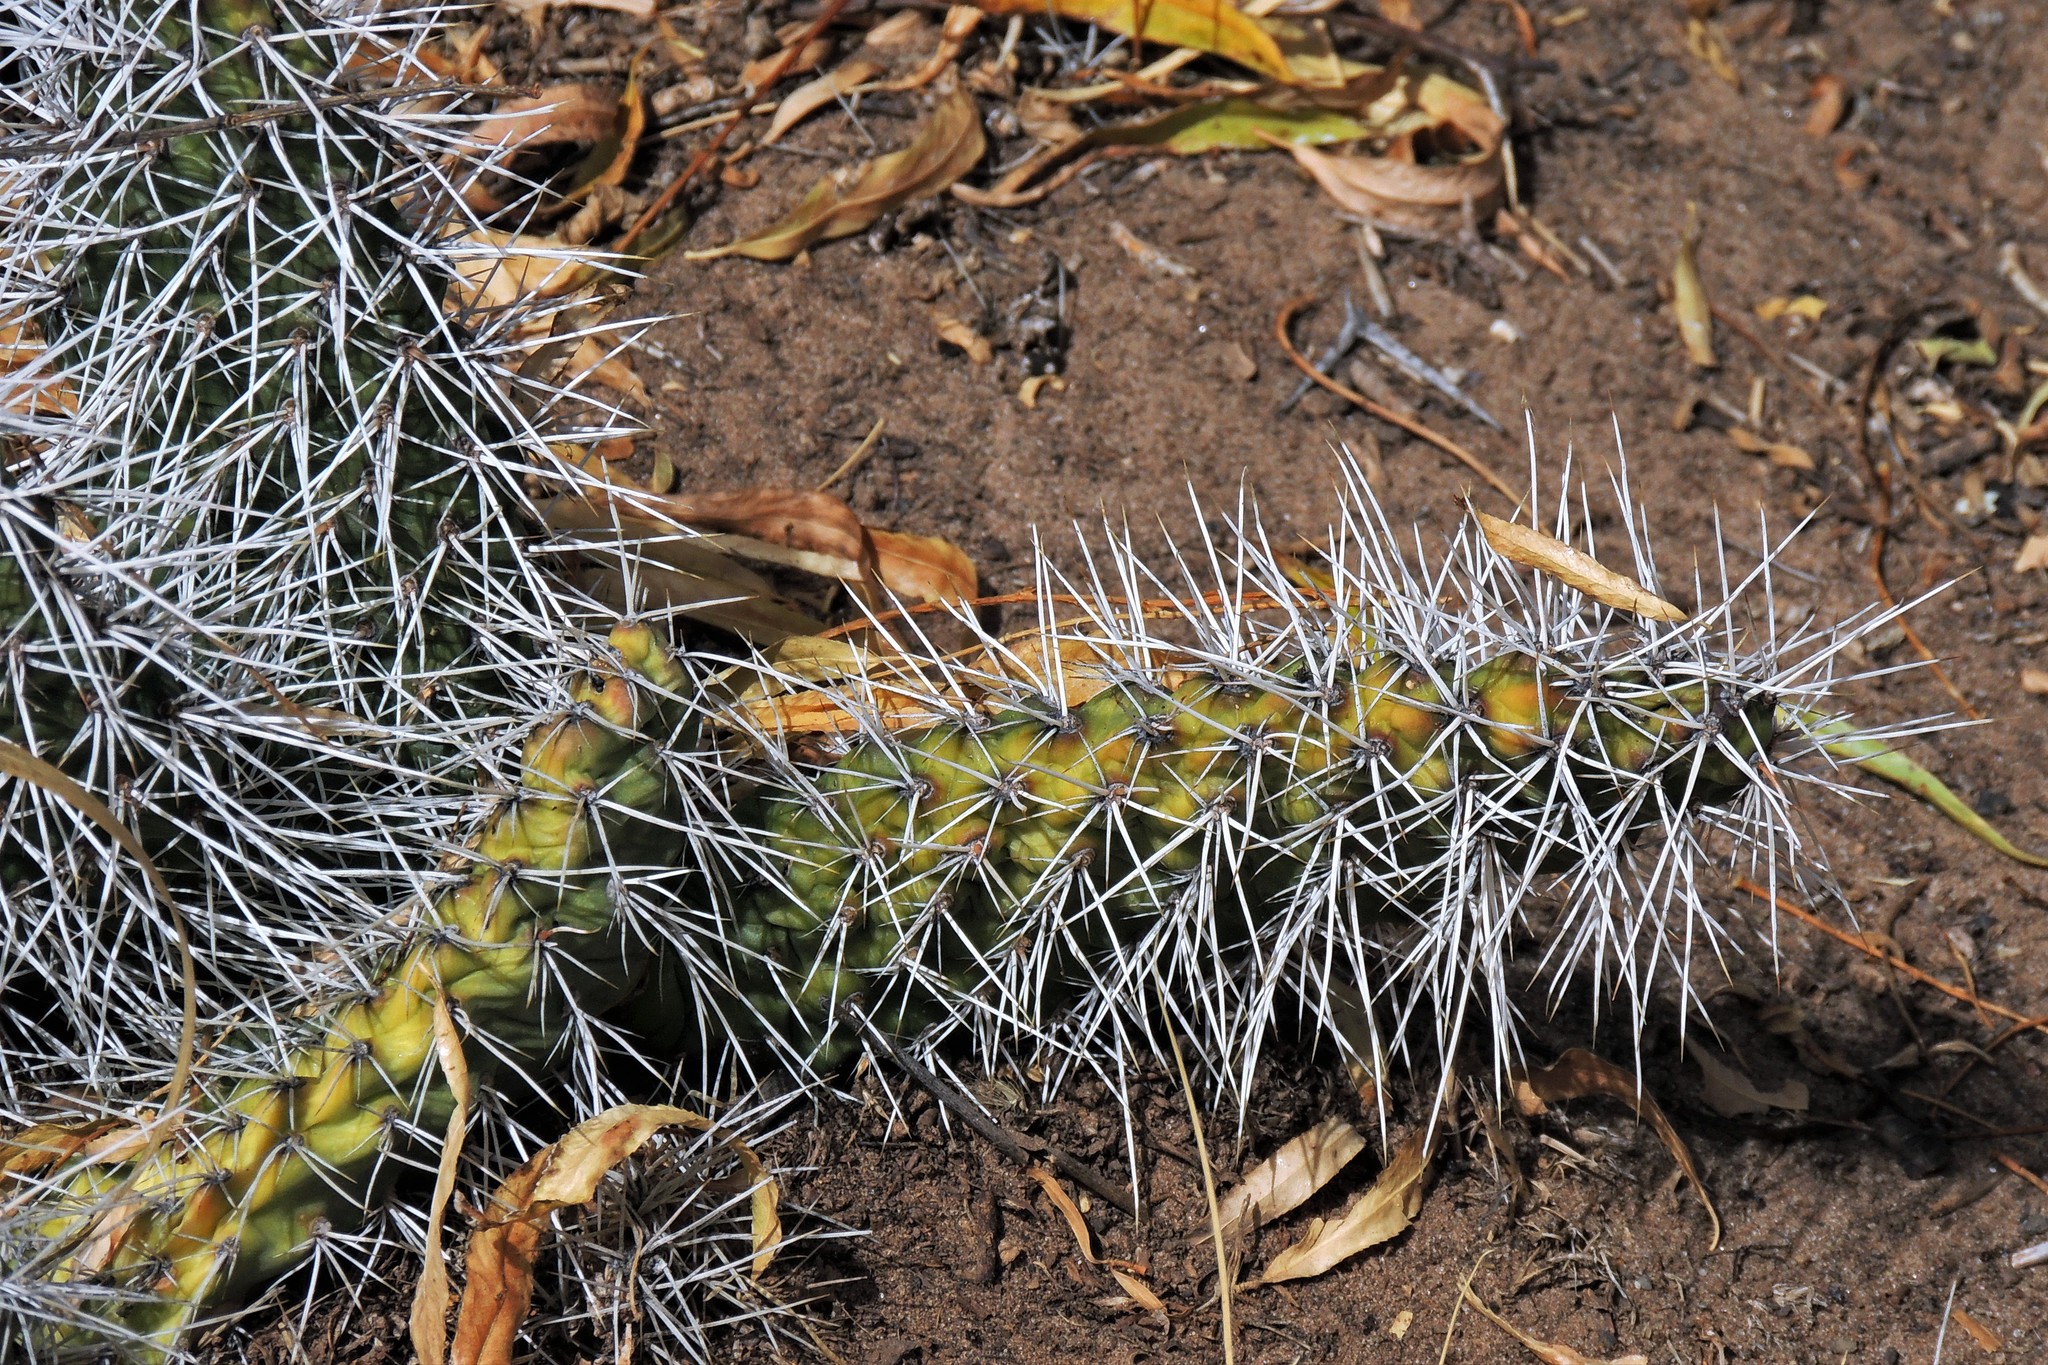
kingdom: Plantae
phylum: Tracheophyta
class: Magnoliopsida
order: Caryophyllales
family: Cactaceae
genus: Opuntia
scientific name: Opuntia sulphurea
